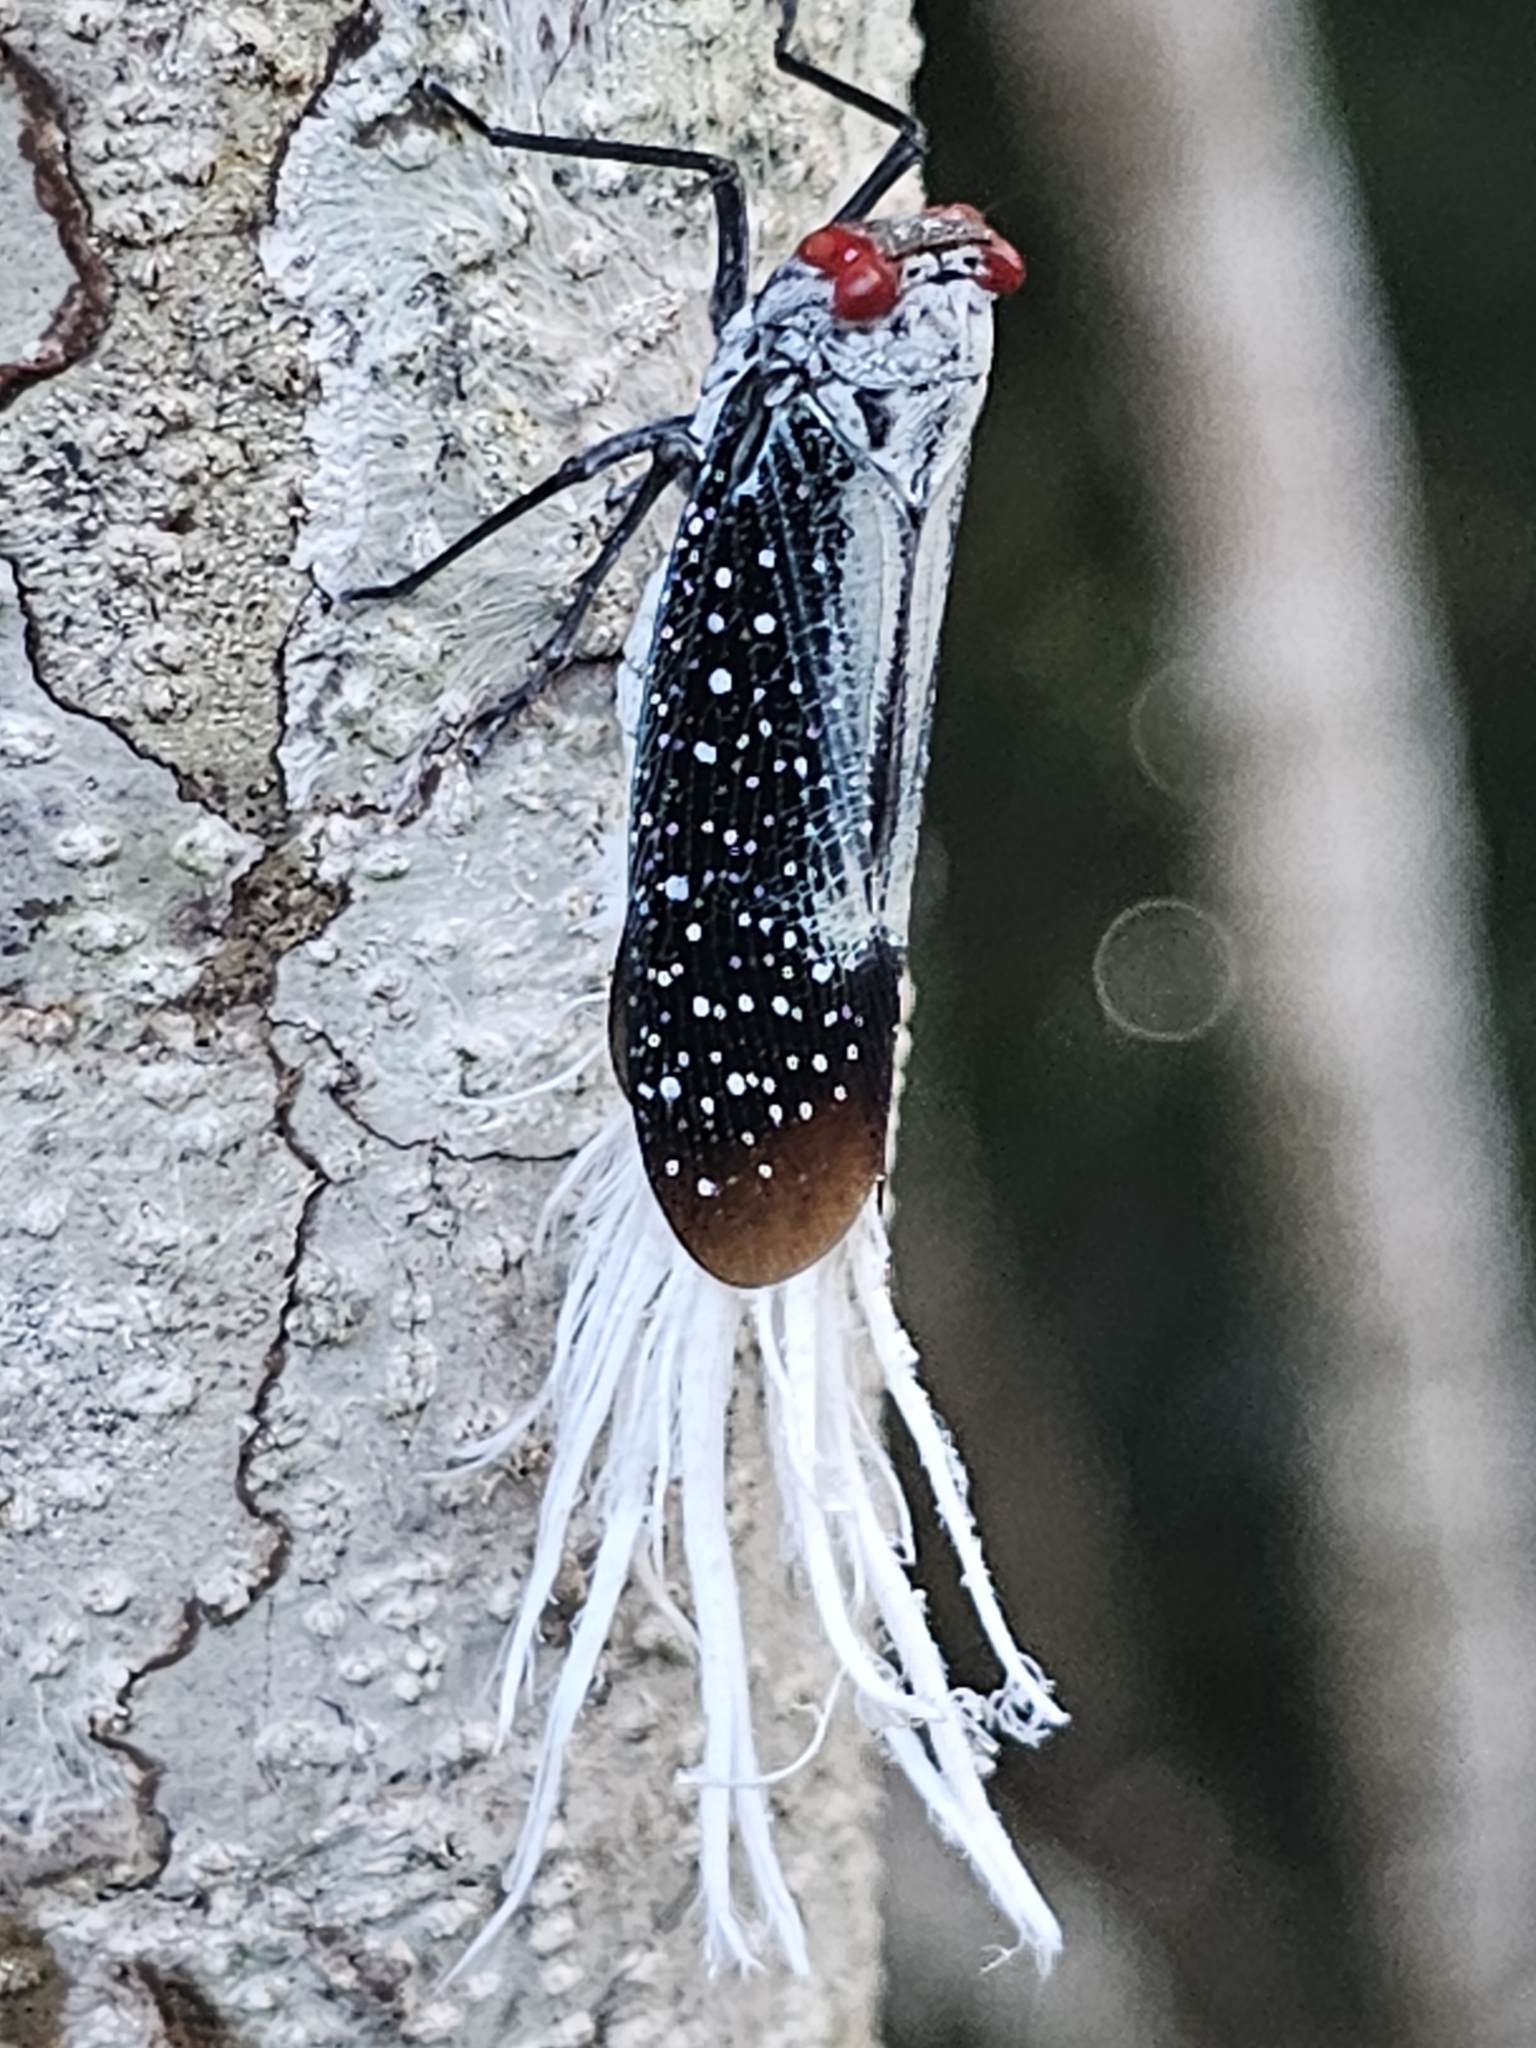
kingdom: Animalia
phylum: Arthropoda
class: Insecta
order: Hemiptera
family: Fulgoridae
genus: Lystra
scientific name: Lystra lanata
